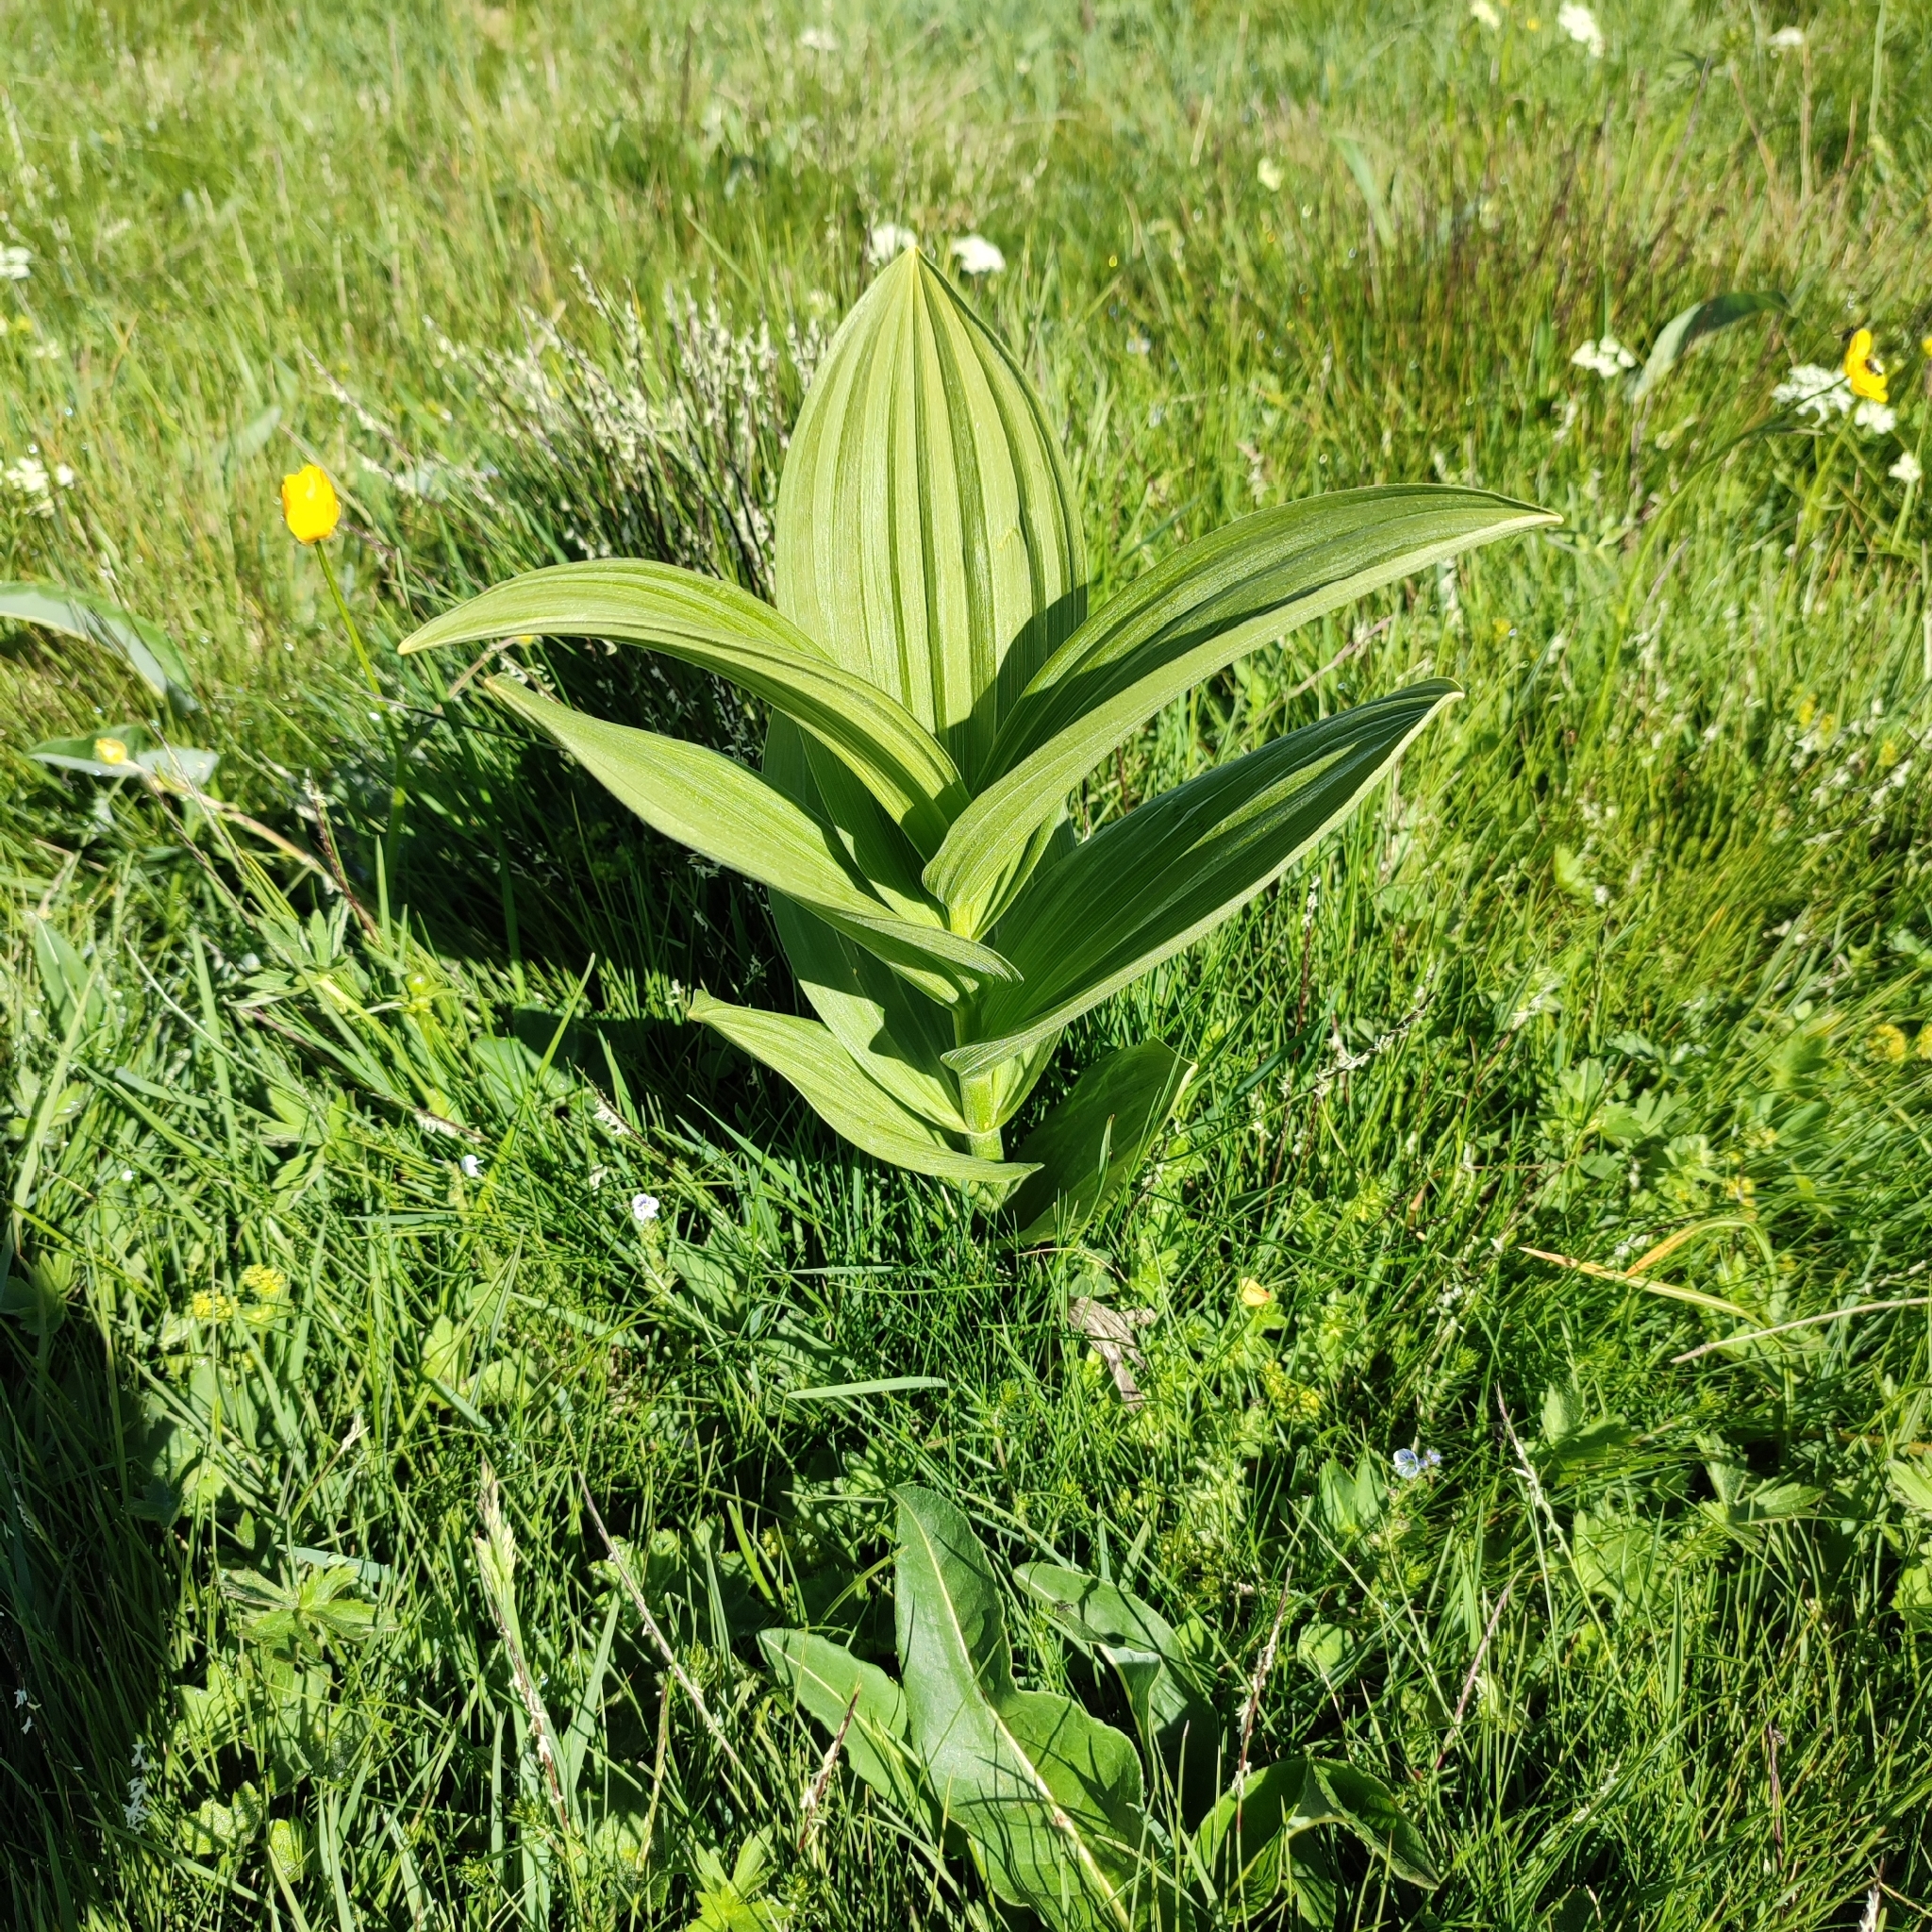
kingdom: Plantae
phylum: Tracheophyta
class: Liliopsida
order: Liliales
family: Melanthiaceae
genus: Veratrum
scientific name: Veratrum album
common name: White veratrum
